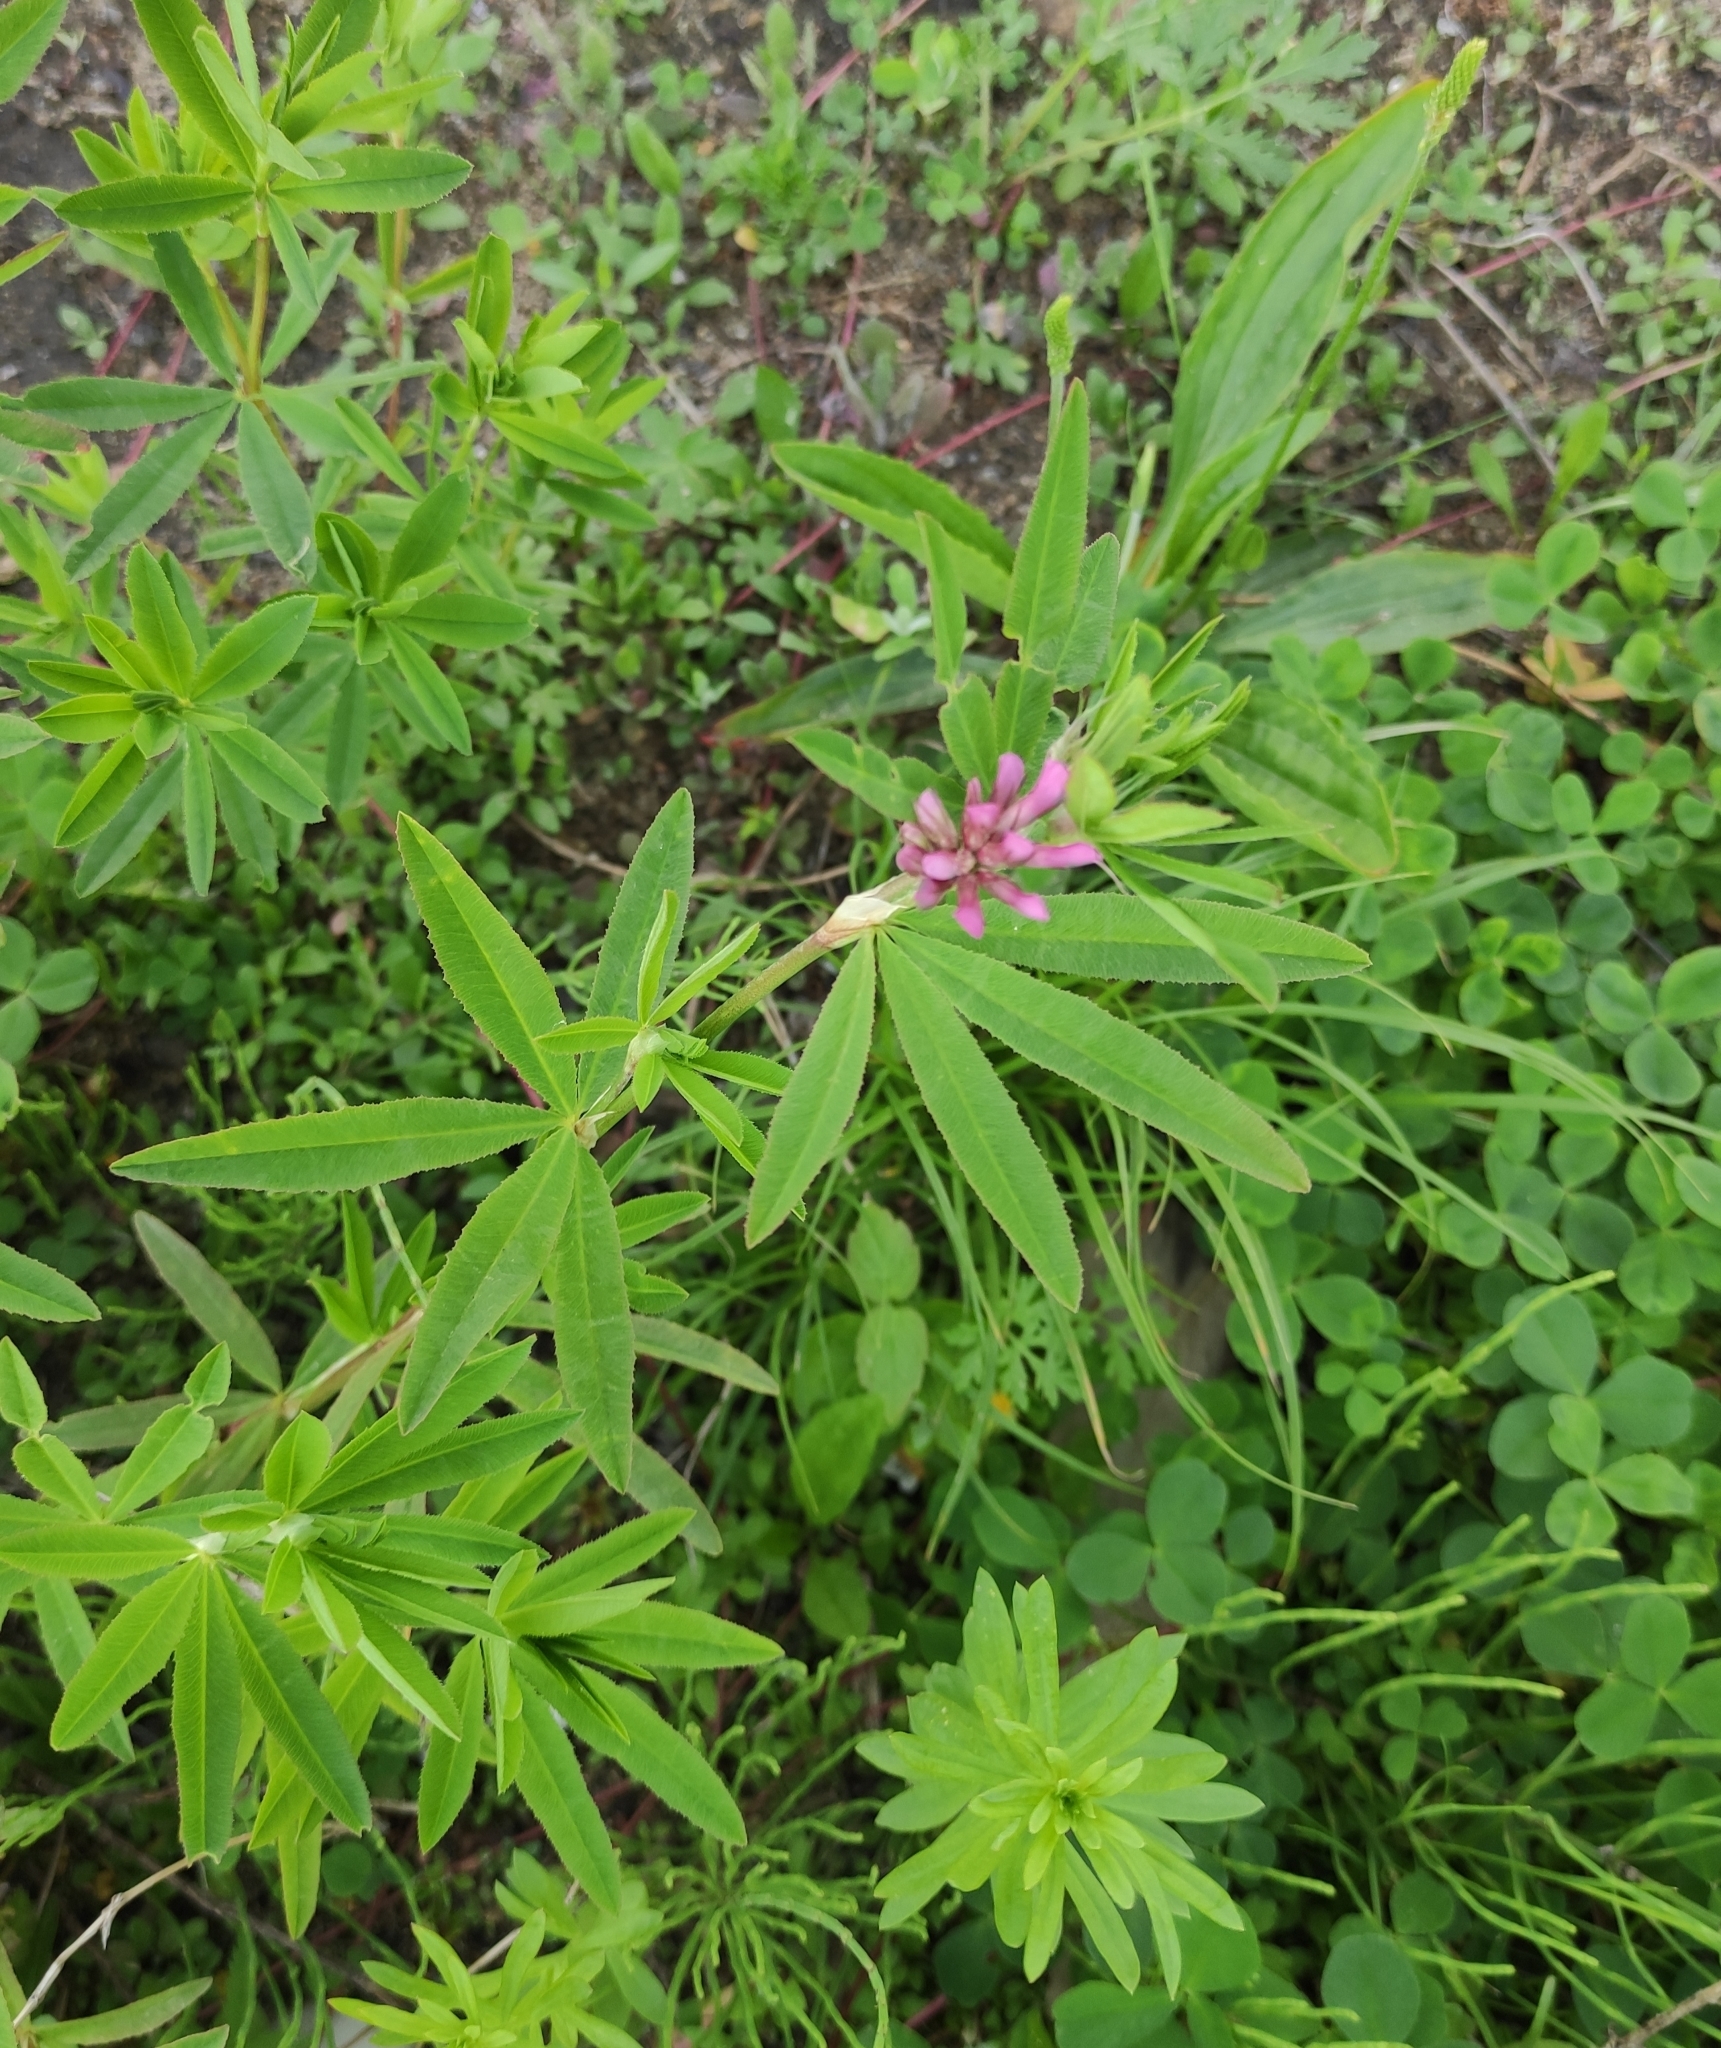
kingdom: Plantae
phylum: Tracheophyta
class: Magnoliopsida
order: Fabales
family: Fabaceae
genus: Trifolium
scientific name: Trifolium lupinaster
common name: Lupine clover
